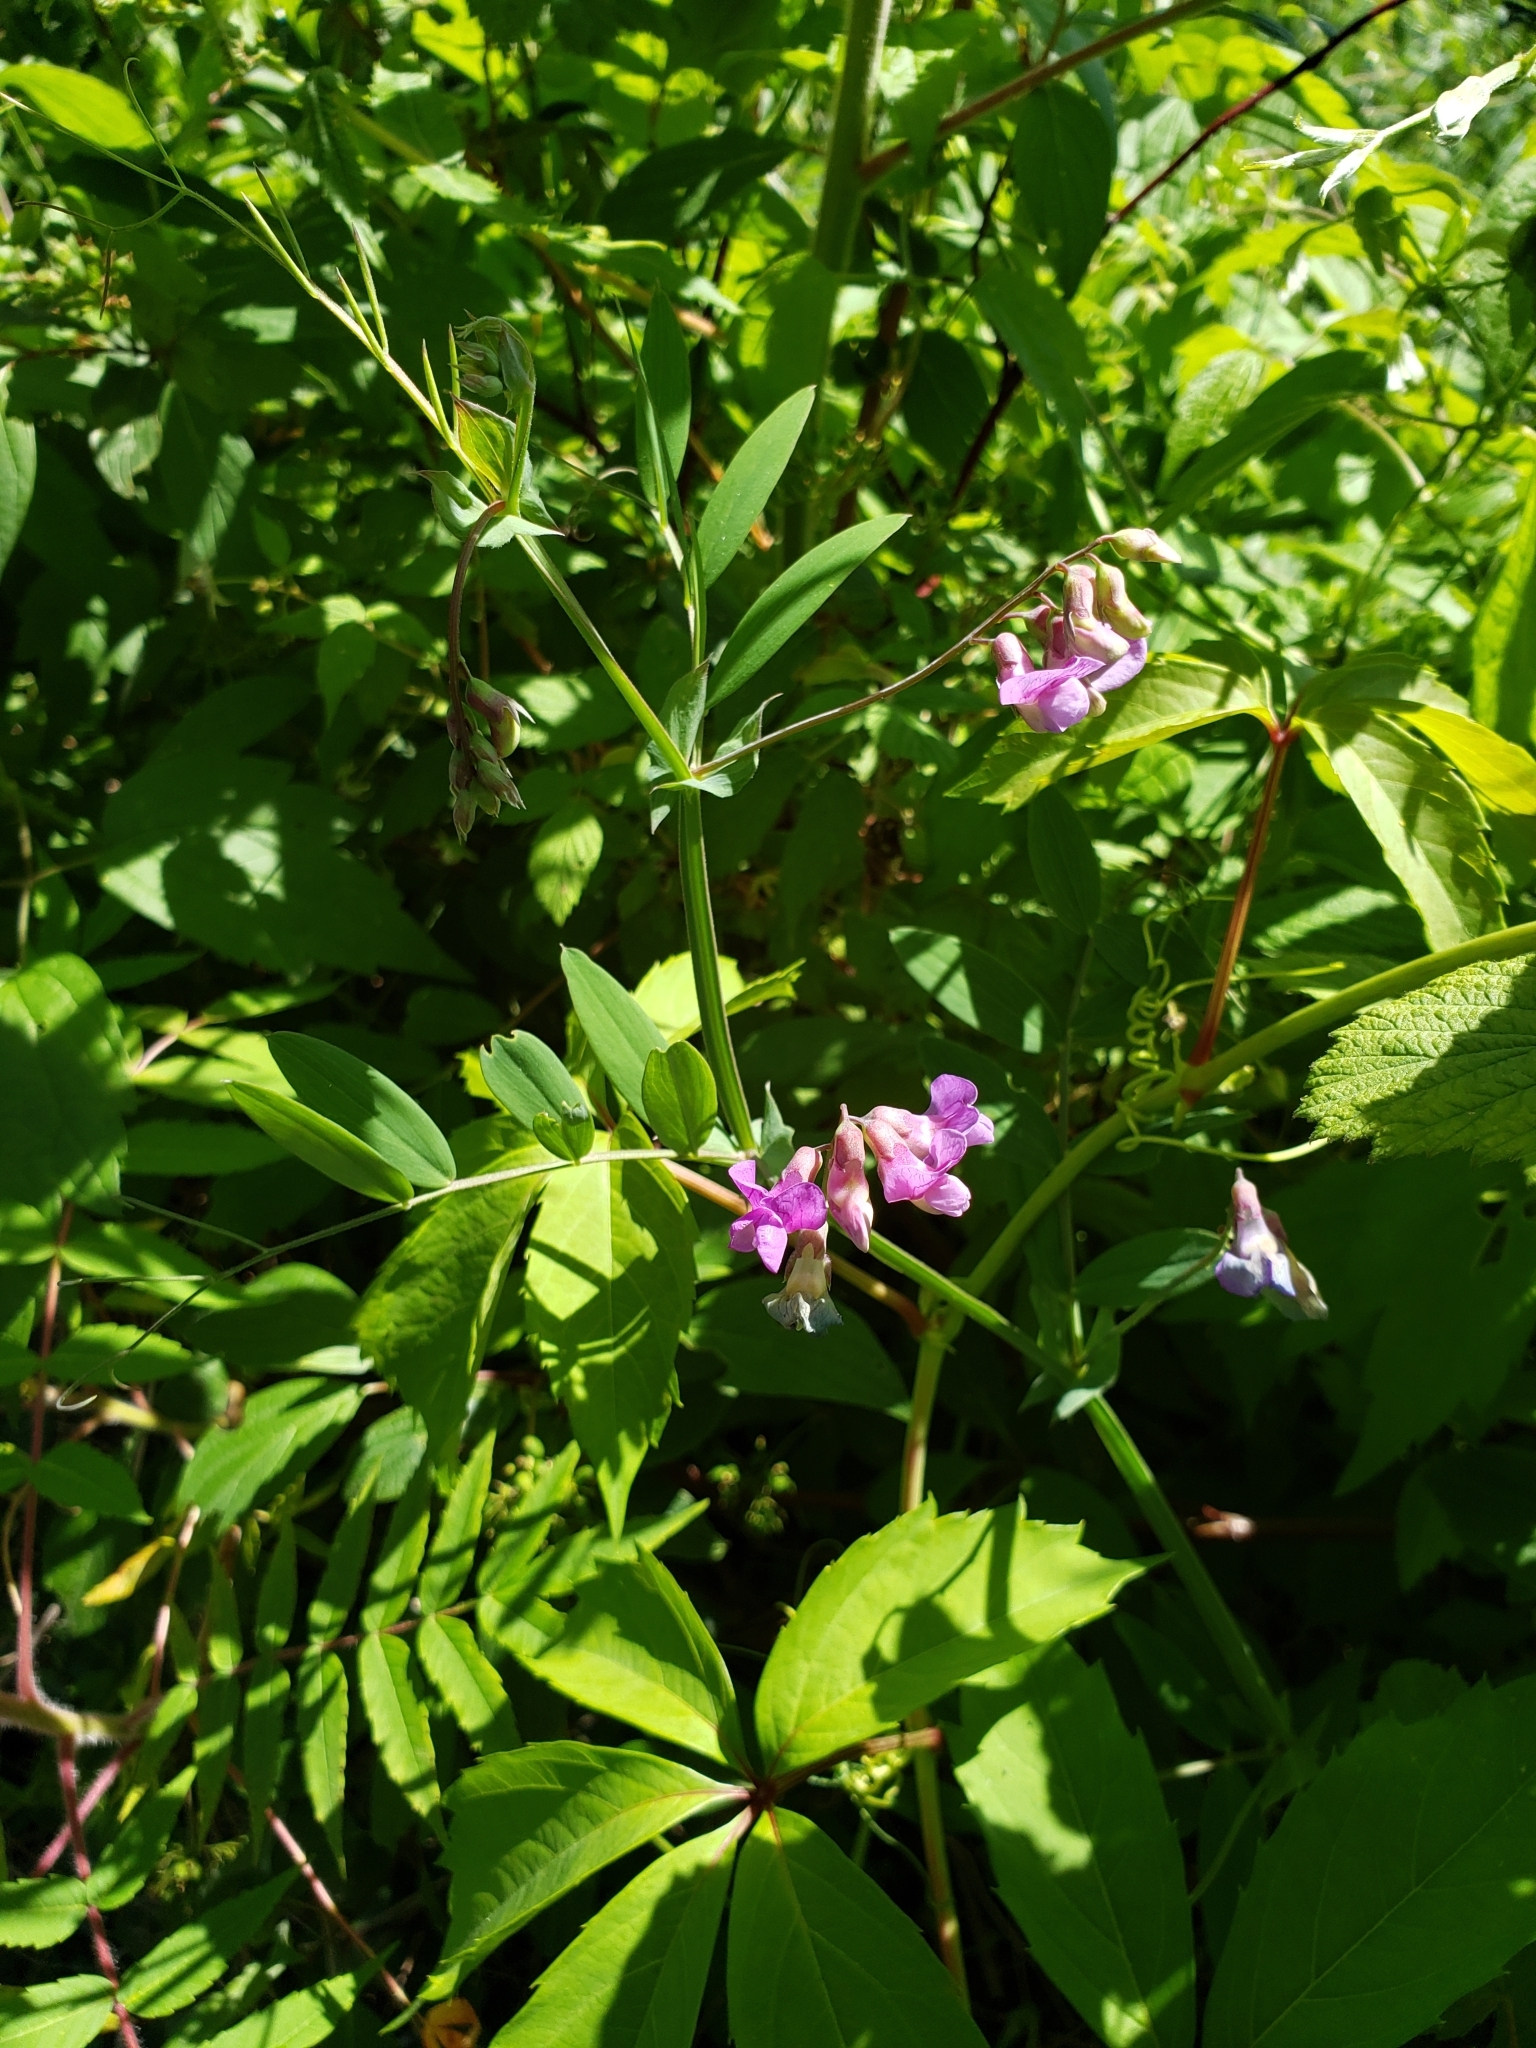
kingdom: Plantae
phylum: Tracheophyta
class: Magnoliopsida
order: Fabales
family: Fabaceae
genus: Lathyrus
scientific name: Lathyrus palustris
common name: Marsh pea
